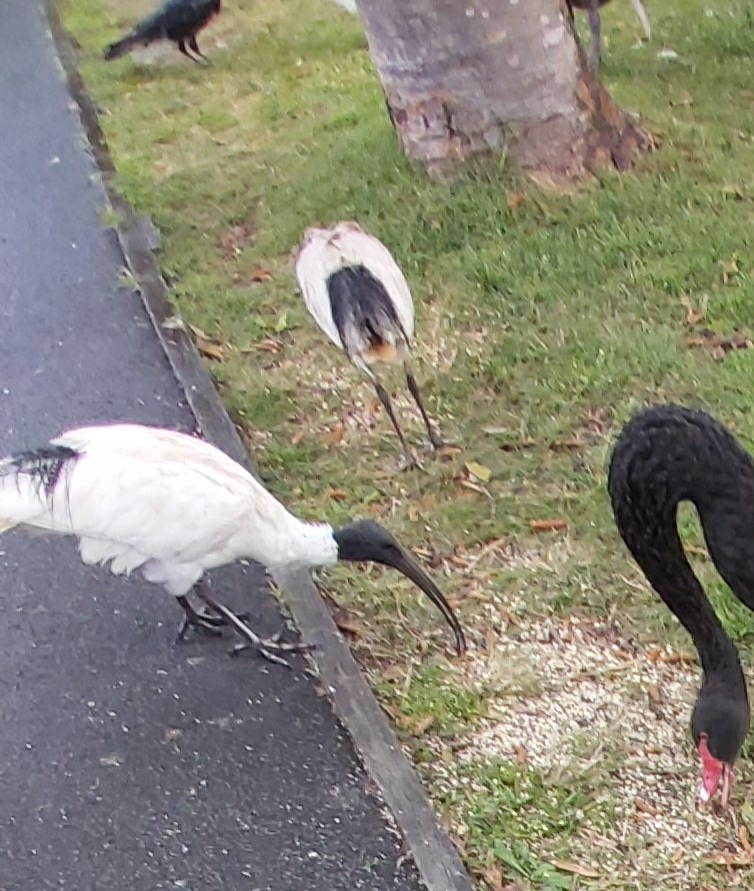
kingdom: Animalia
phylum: Chordata
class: Aves
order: Pelecaniformes
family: Threskiornithidae
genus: Threskiornis
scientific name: Threskiornis molucca
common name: Australian white ibis
